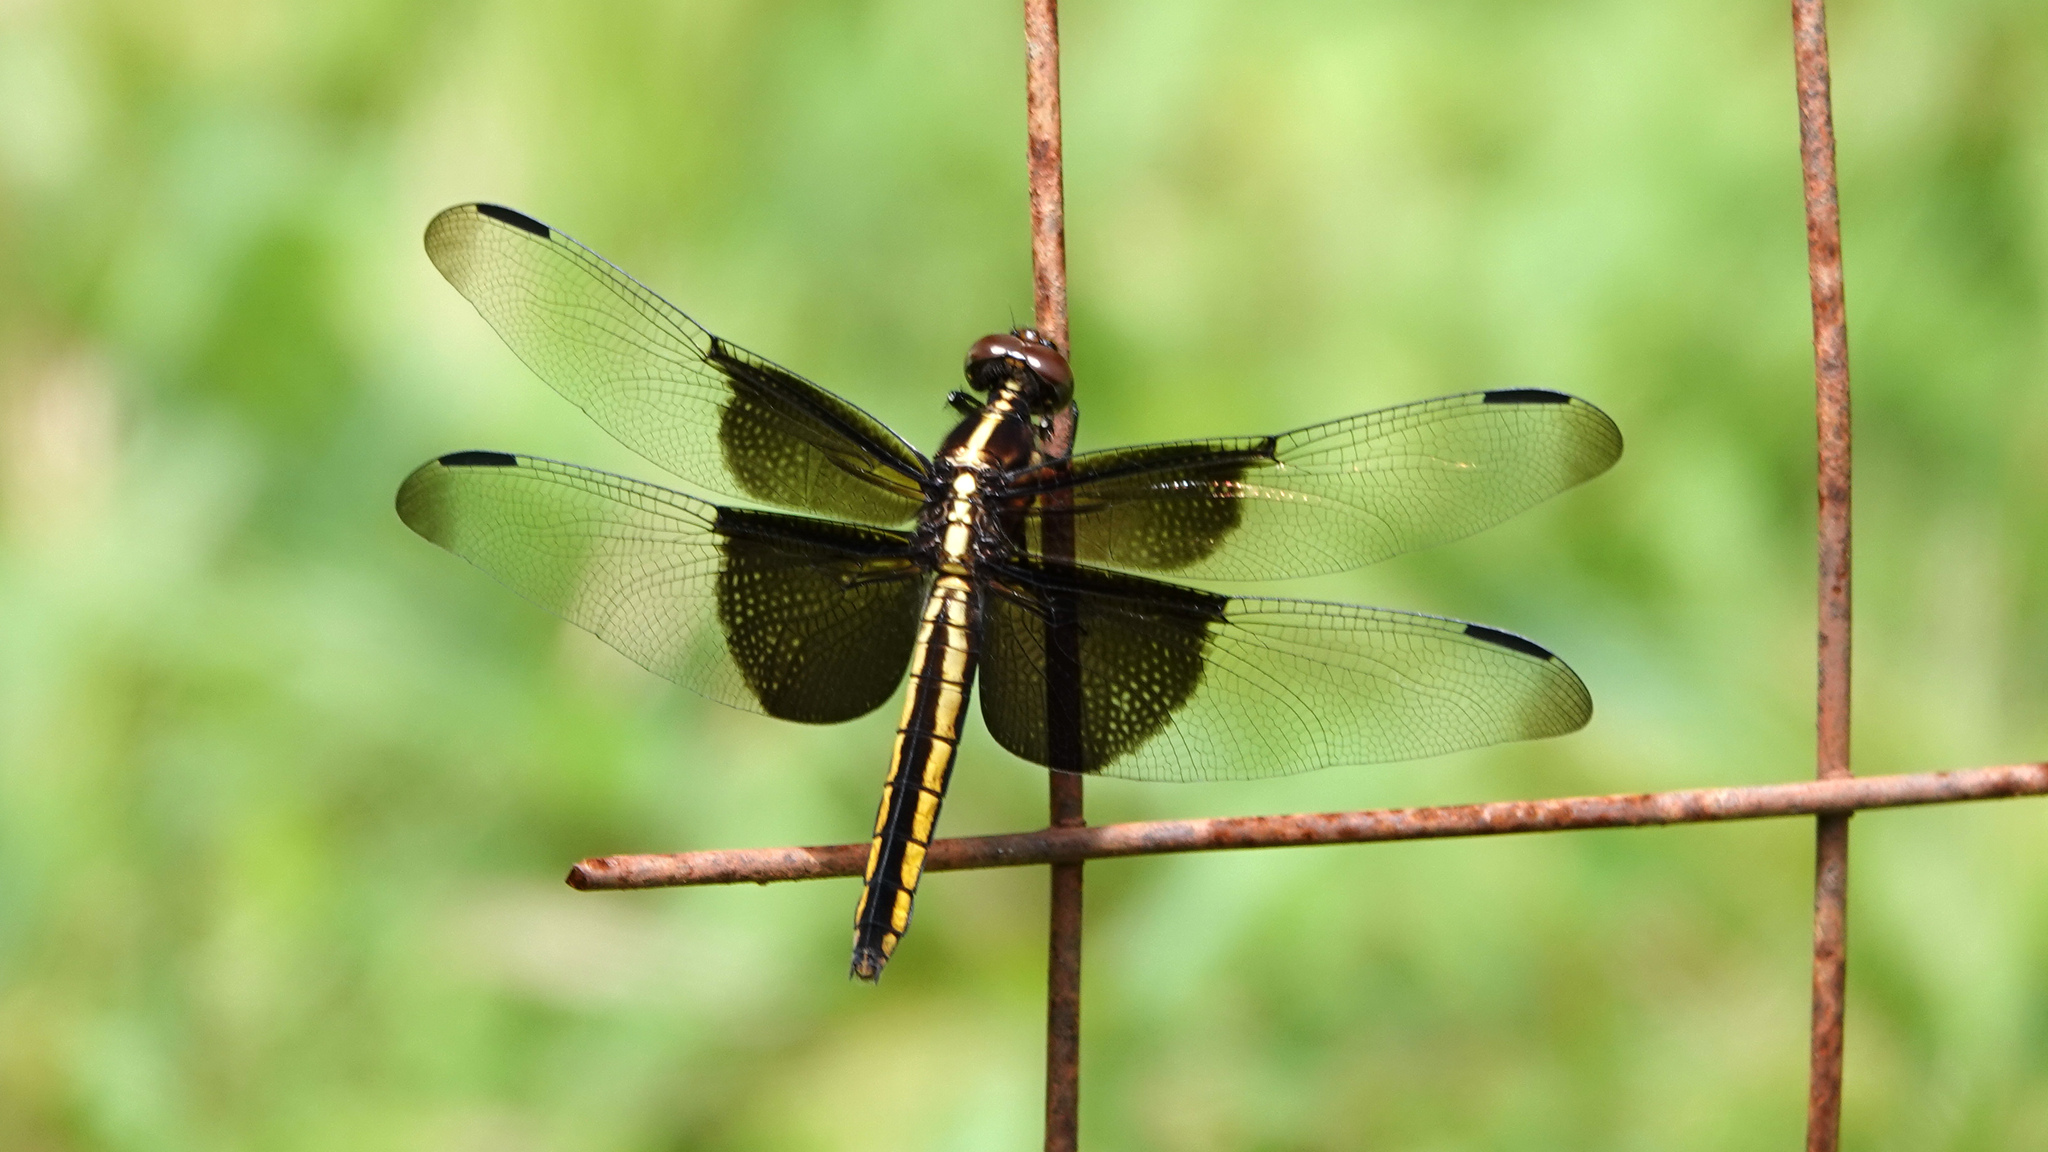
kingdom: Animalia
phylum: Arthropoda
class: Insecta
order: Odonata
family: Libellulidae
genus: Libellula
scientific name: Libellula luctuosa
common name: Widow skimmer
